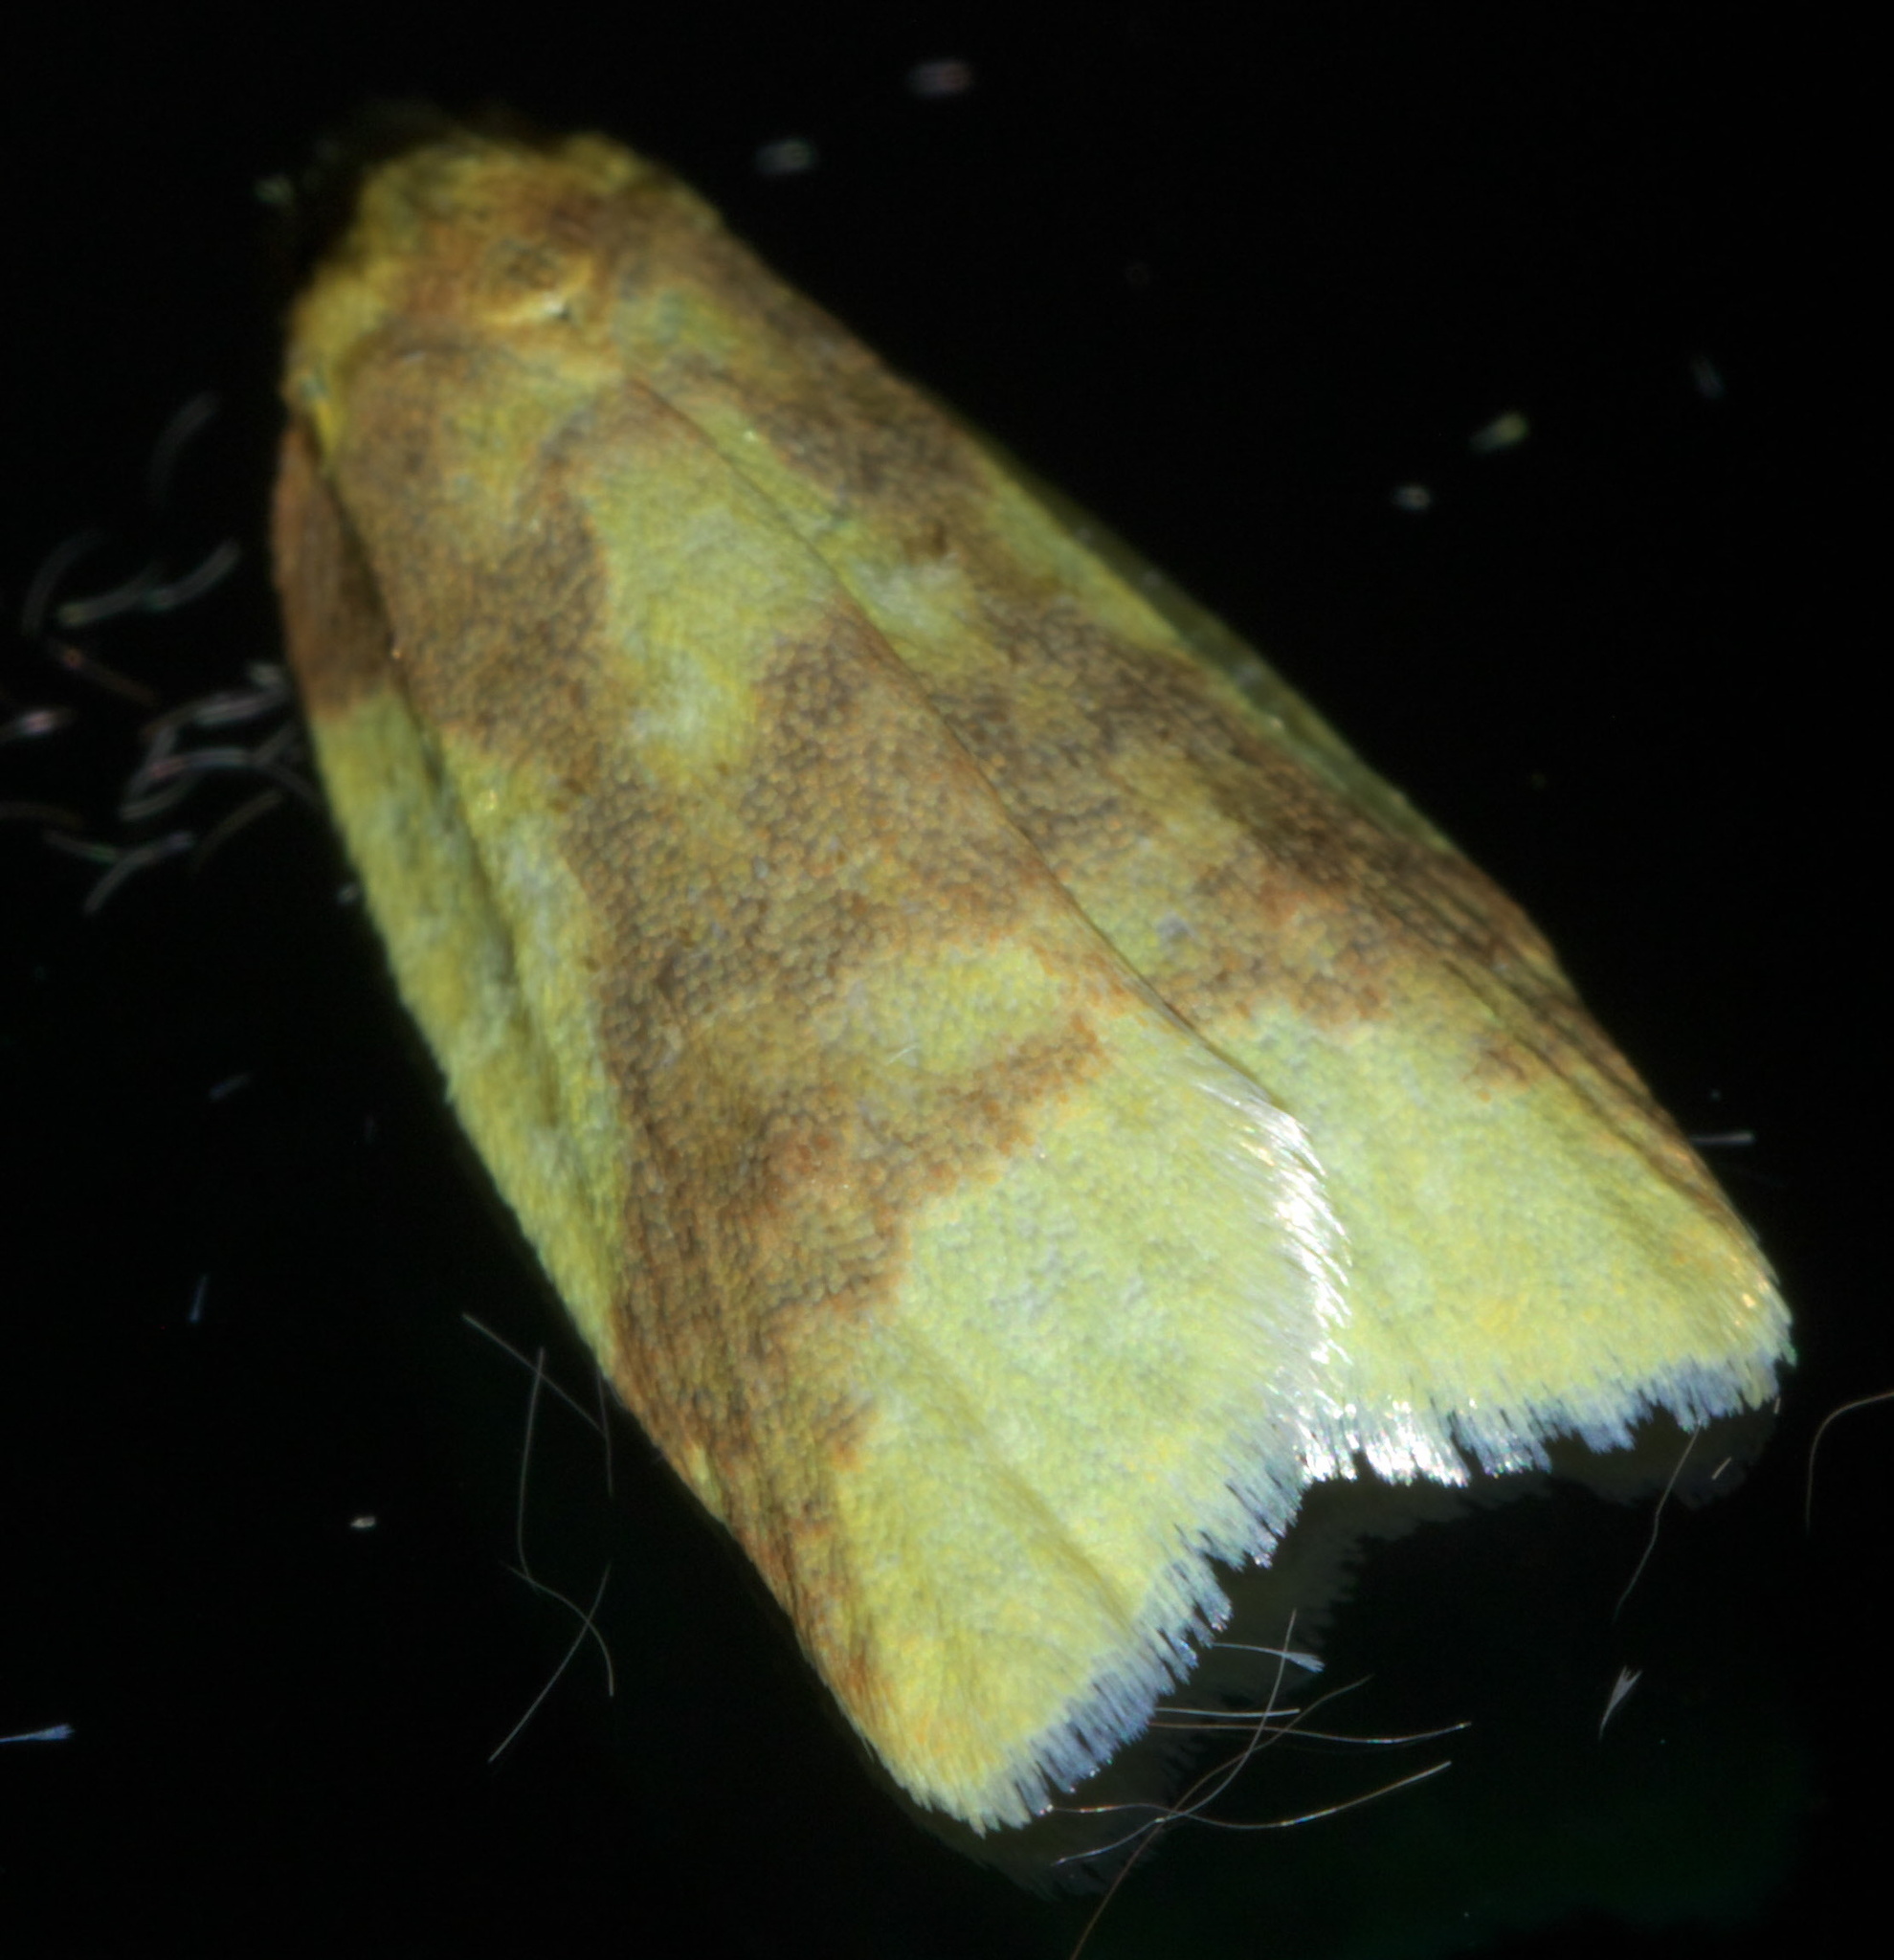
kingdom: Animalia
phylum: Arthropoda
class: Insecta
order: Lepidoptera
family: Tortricidae
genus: Sparganothis
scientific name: Sparganothis pulcherrimana
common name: Beautiful sparganothis
